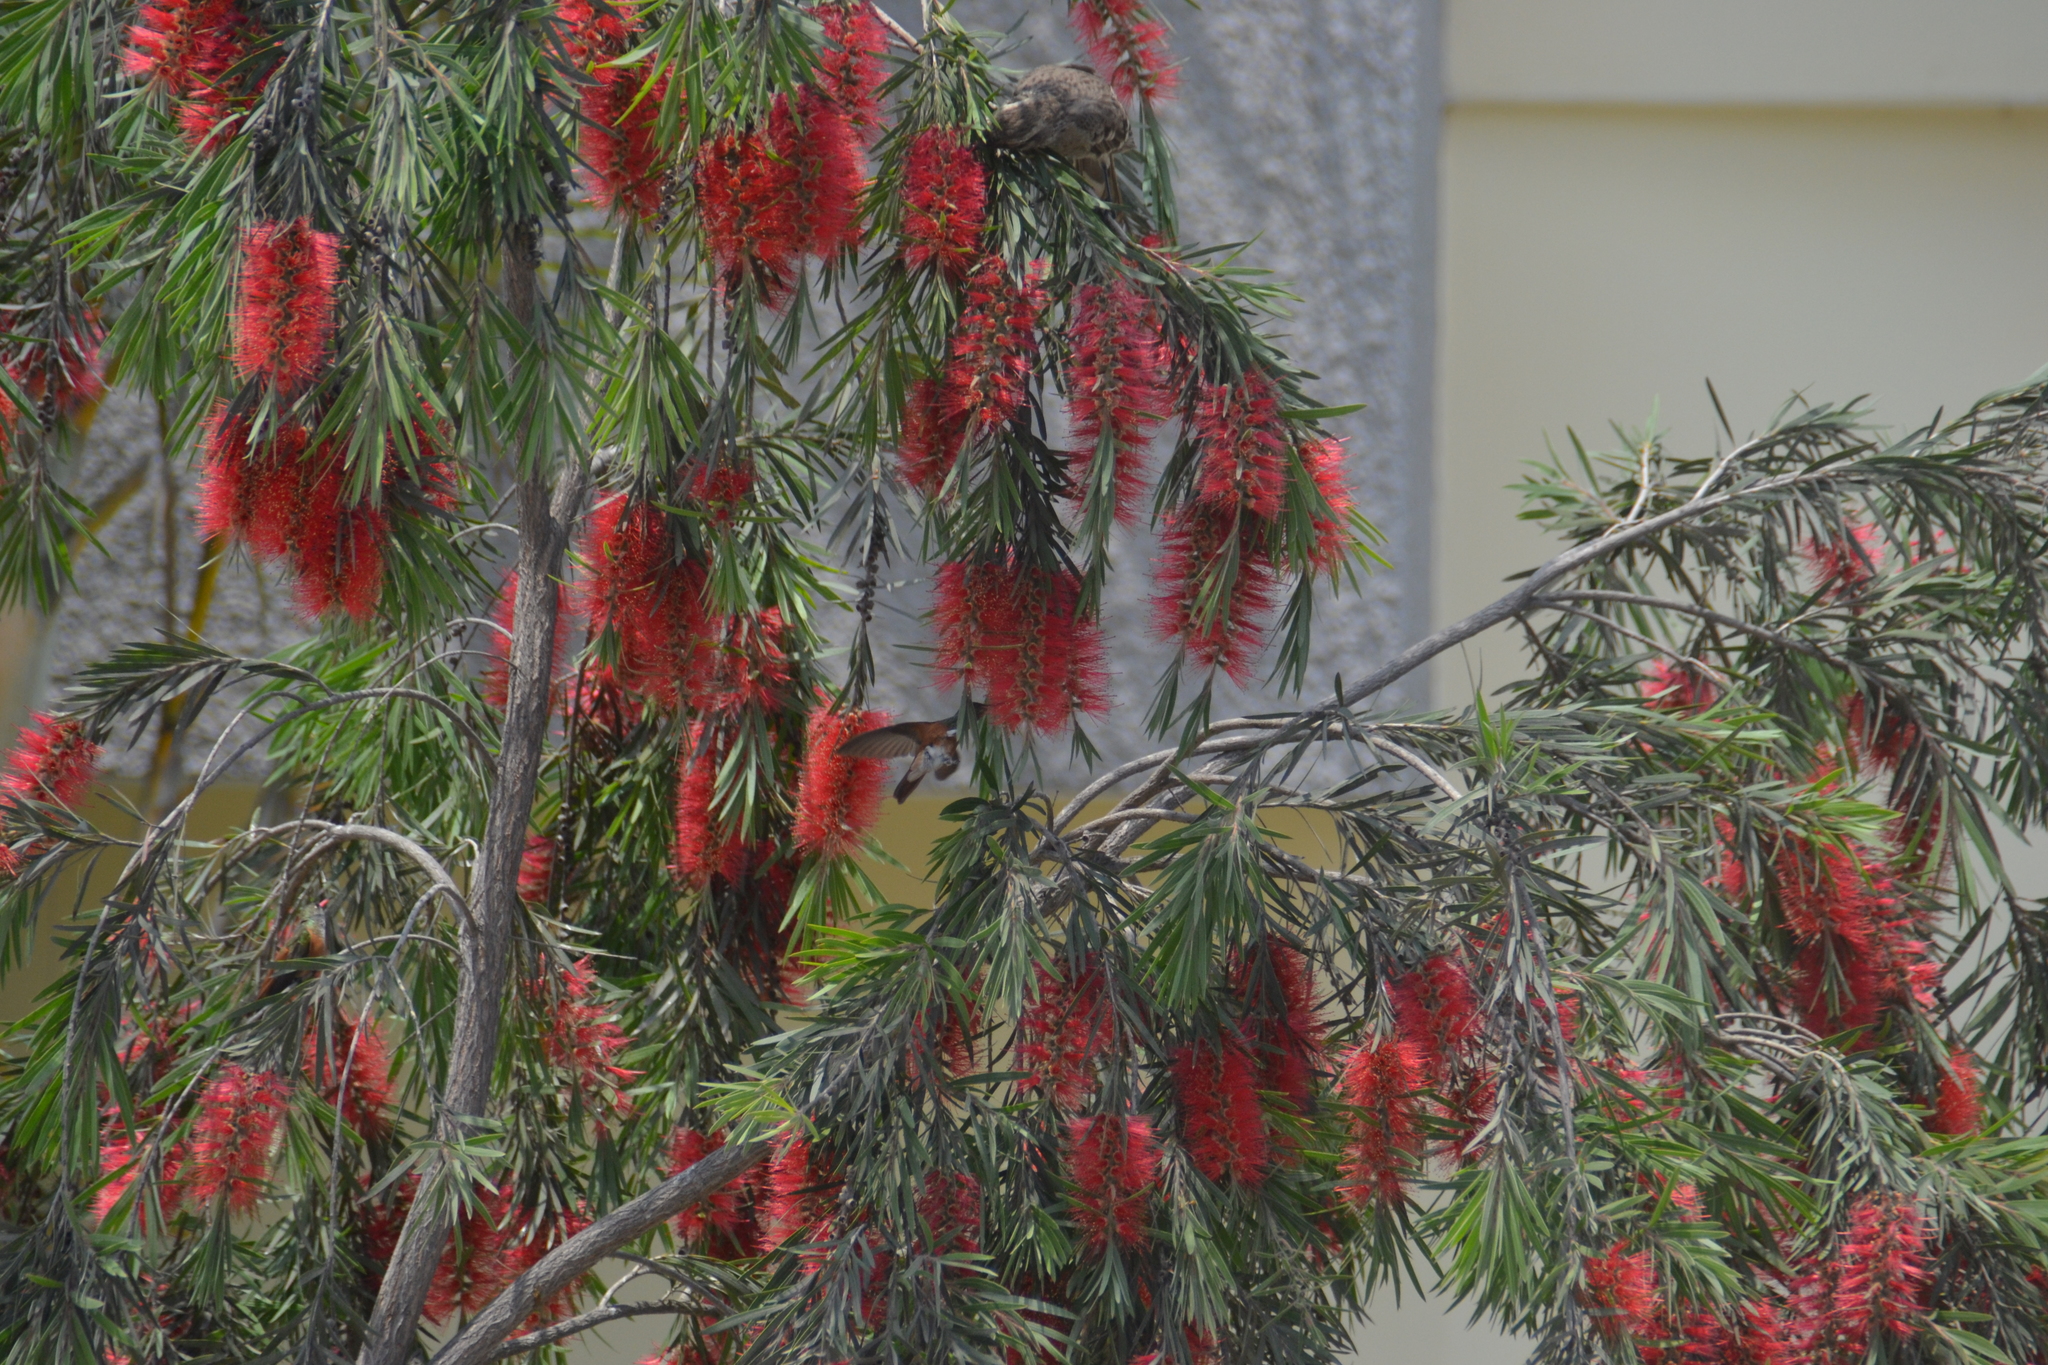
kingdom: Animalia
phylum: Chordata
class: Aves
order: Apodiformes
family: Trochilidae
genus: Amazilis
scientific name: Amazilis amazilia
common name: Amazilia hummingbird
